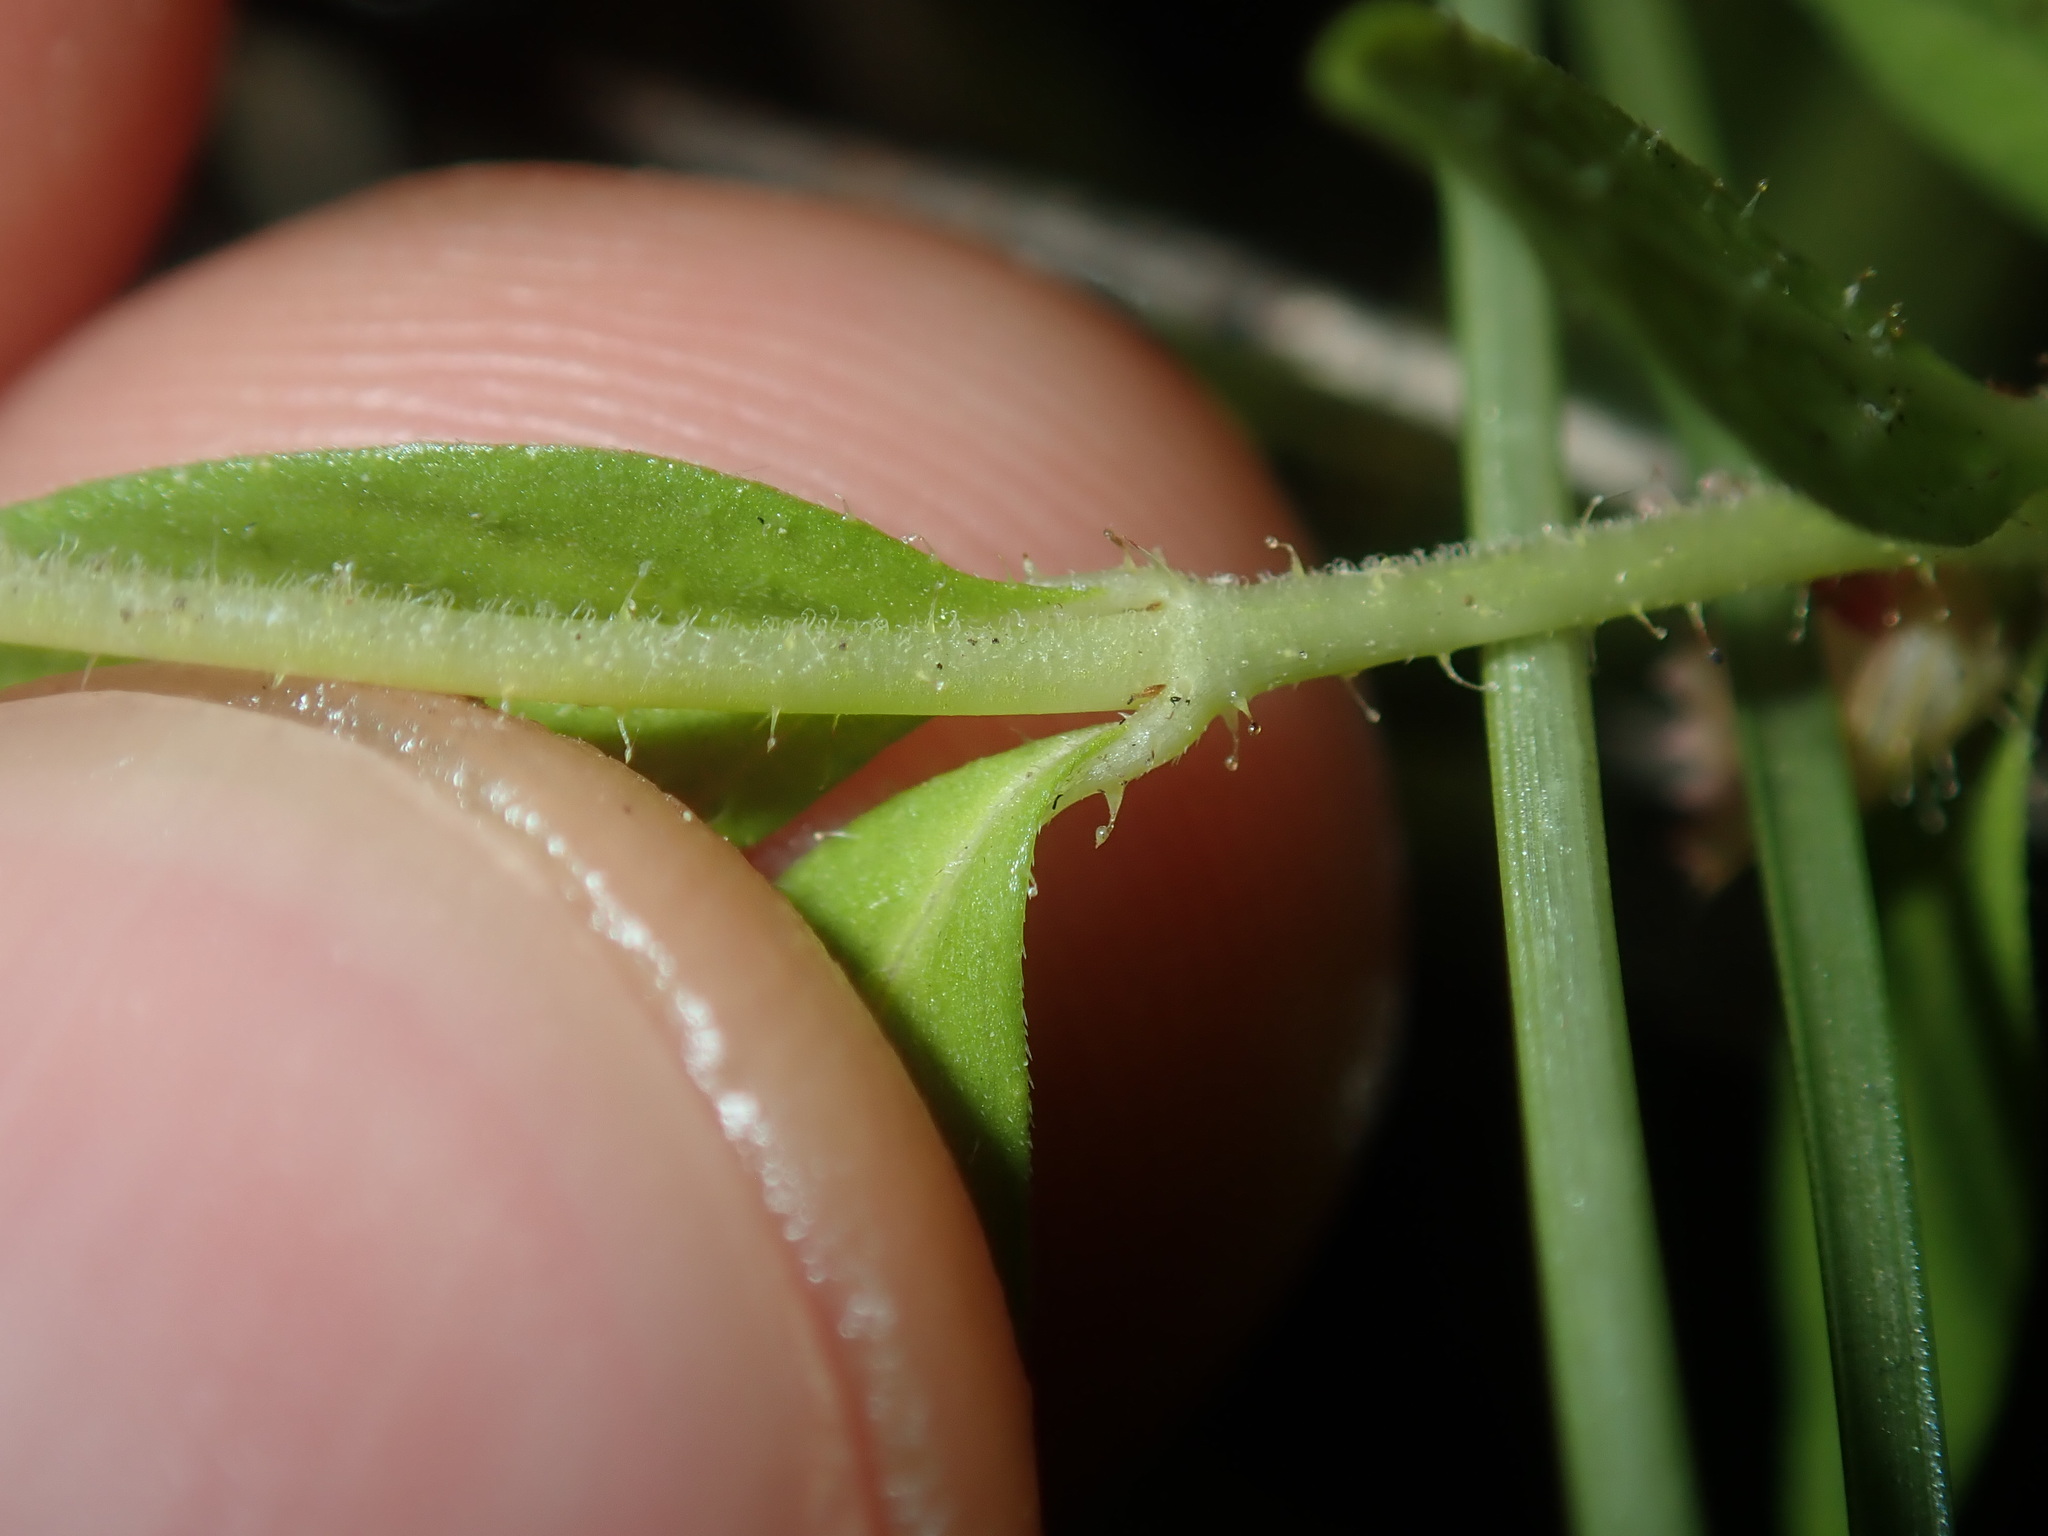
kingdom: Plantae
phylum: Tracheophyta
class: Magnoliopsida
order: Myrtales
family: Lythraceae
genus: Cuphea
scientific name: Cuphea carthagenensis
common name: Colombian waxweed
